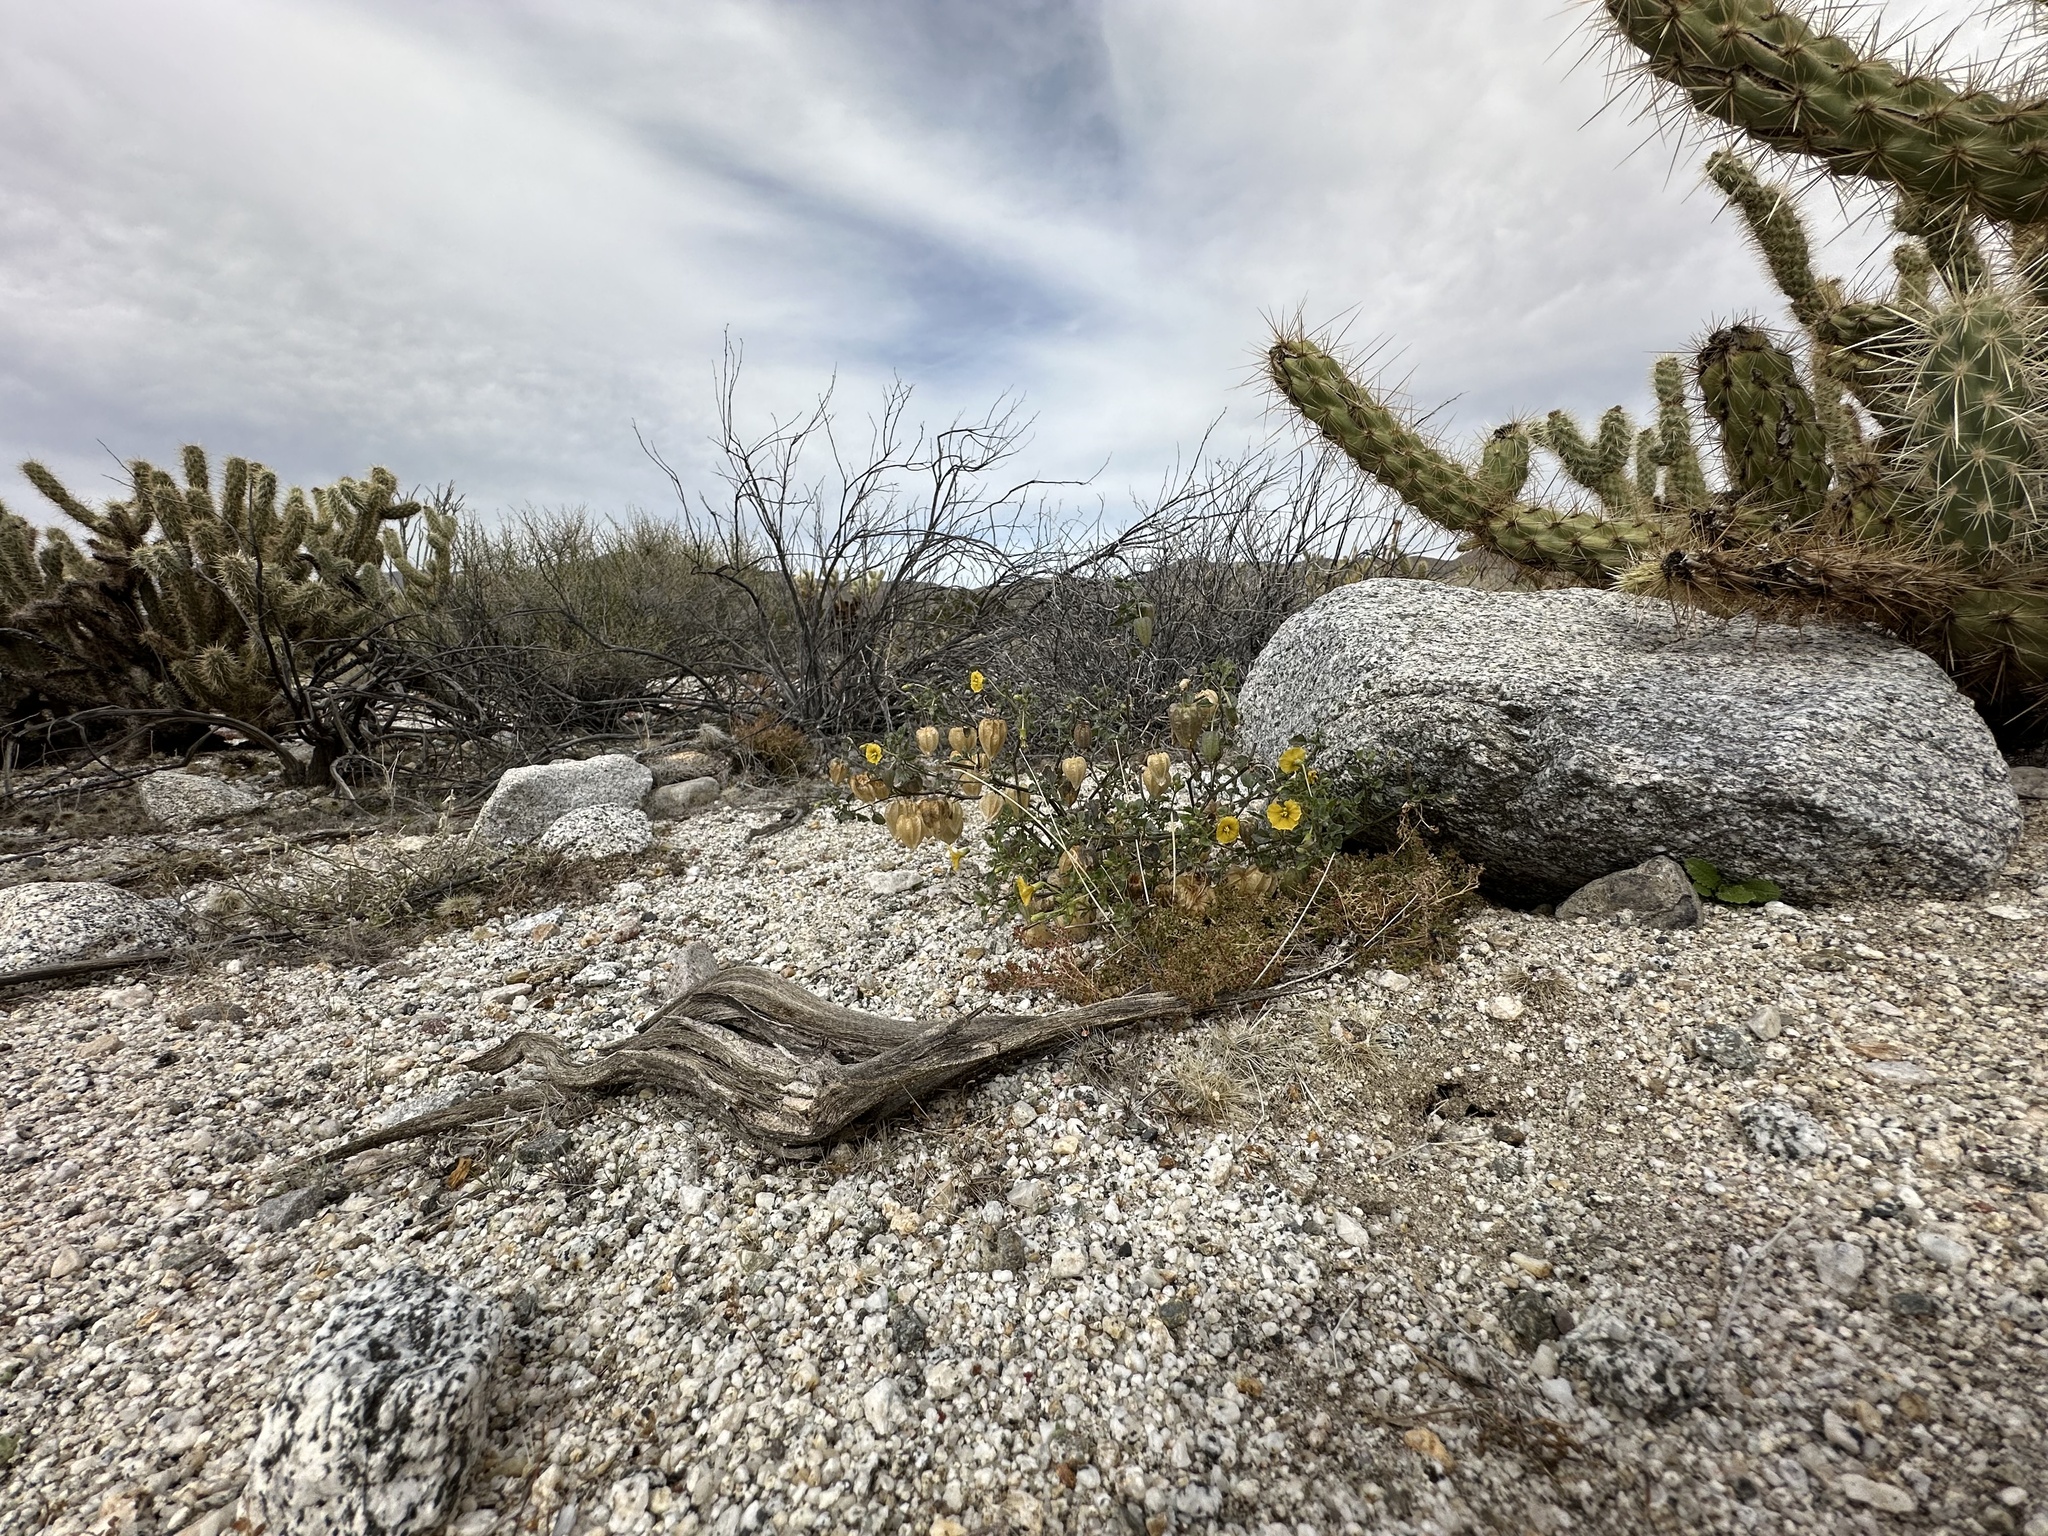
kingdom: Plantae
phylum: Tracheophyta
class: Magnoliopsida
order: Solanales
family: Solanaceae
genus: Physalis
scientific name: Physalis crassifolia
